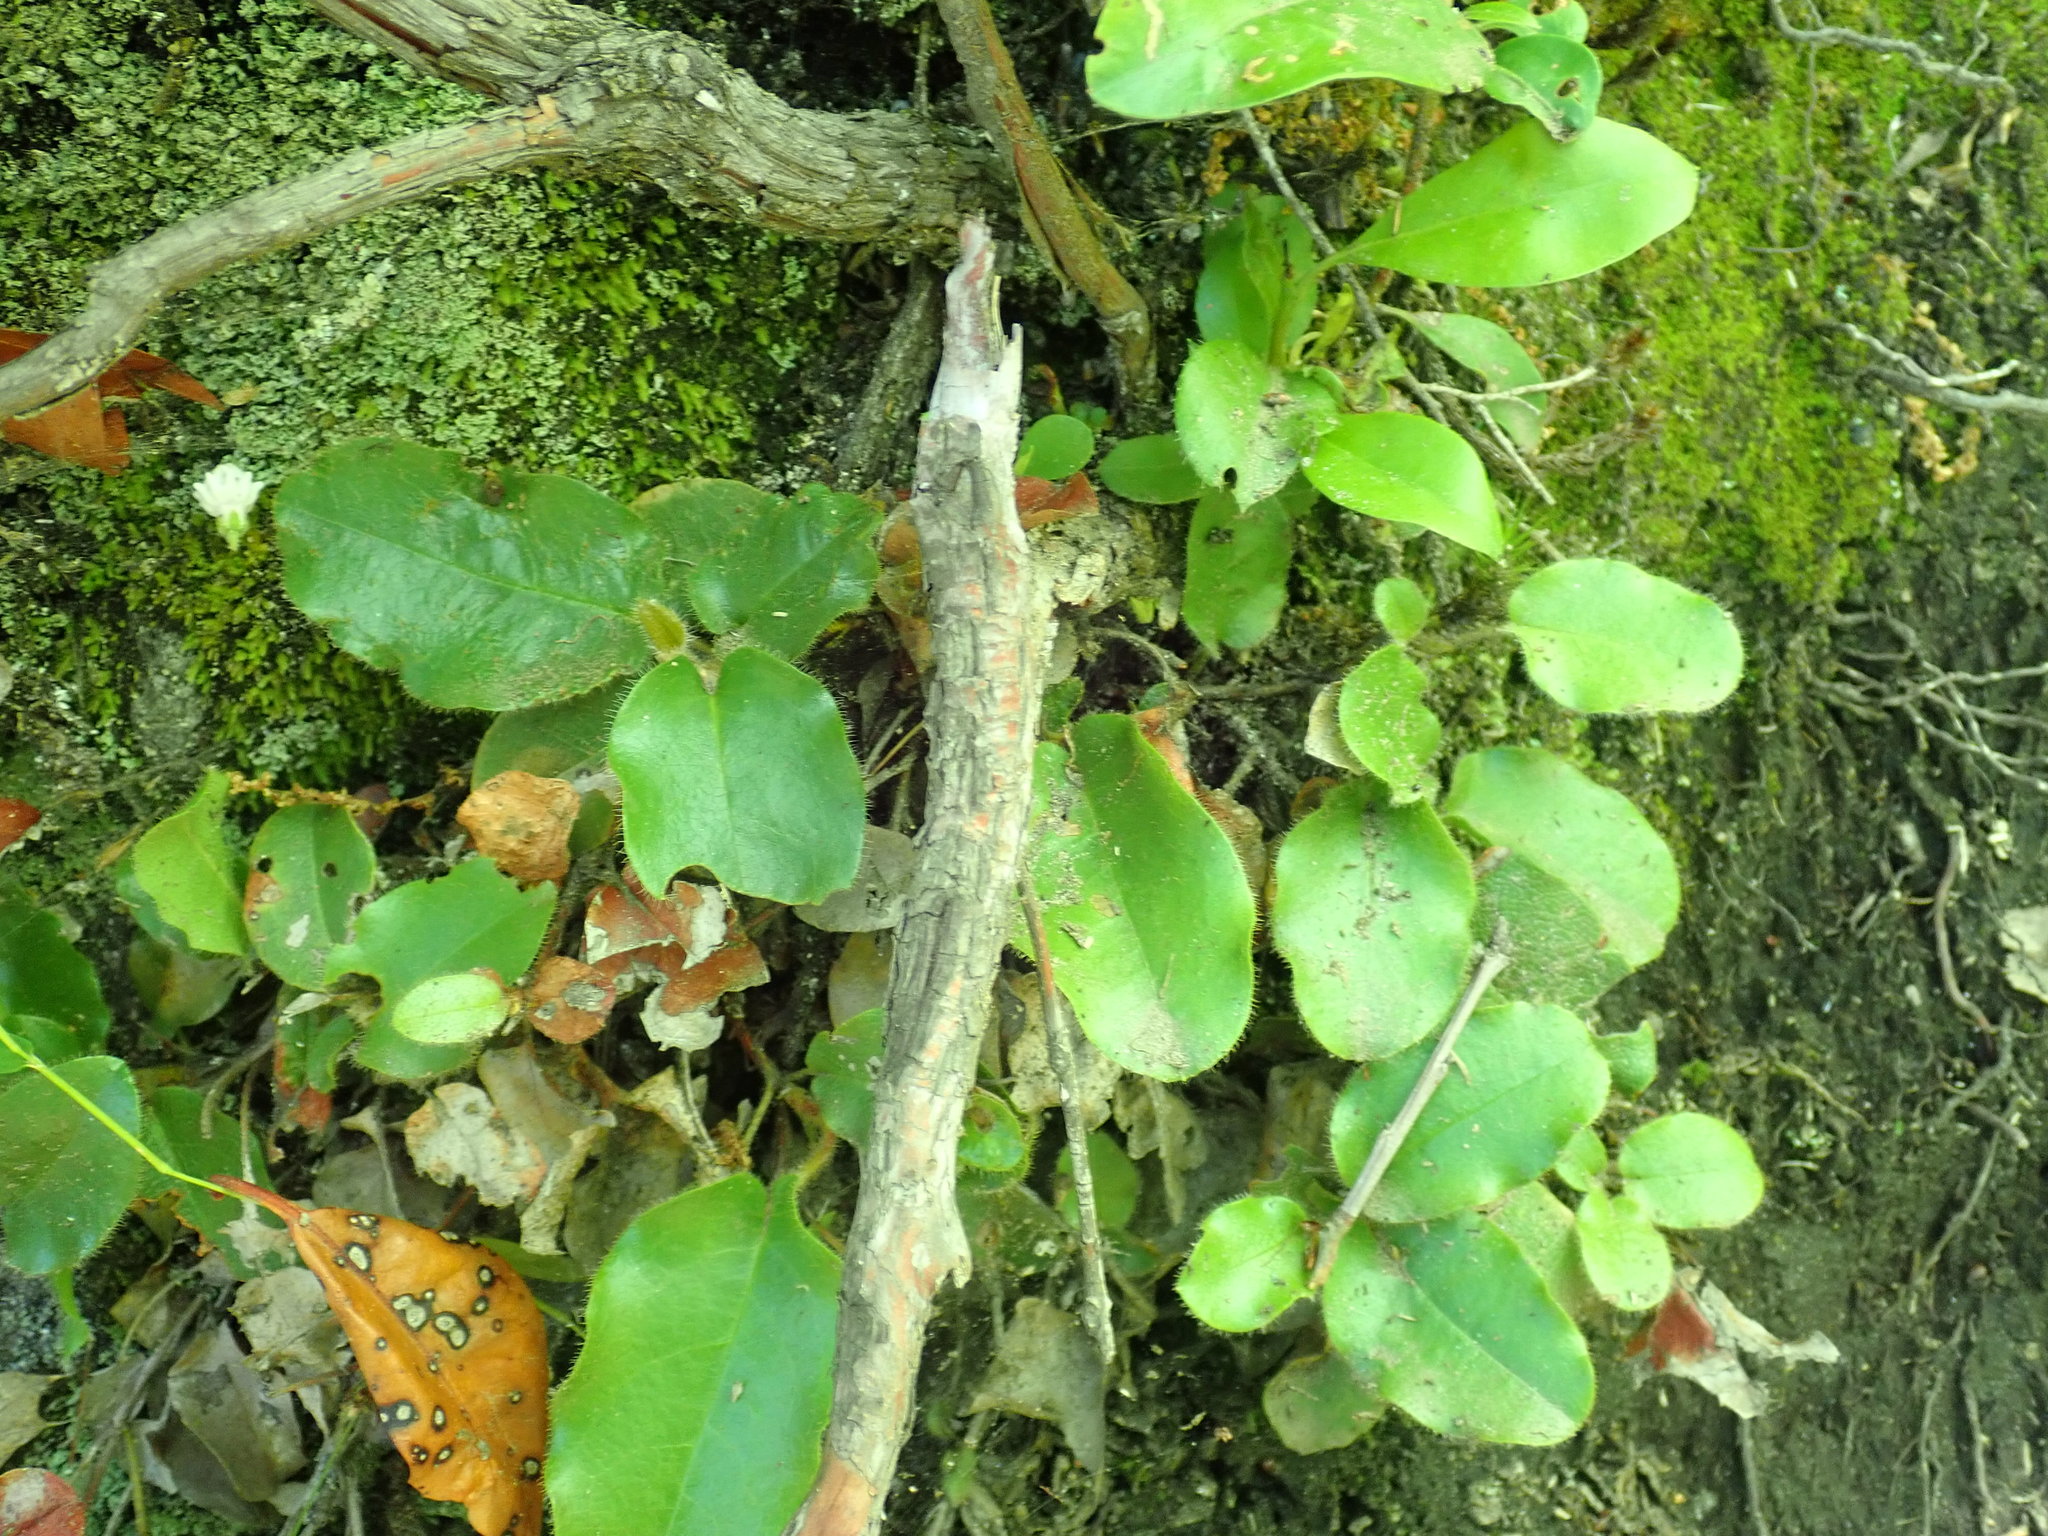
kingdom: Plantae
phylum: Tracheophyta
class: Magnoliopsida
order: Ericales
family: Ericaceae
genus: Epigaea
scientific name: Epigaea repens
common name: Gravelroot
